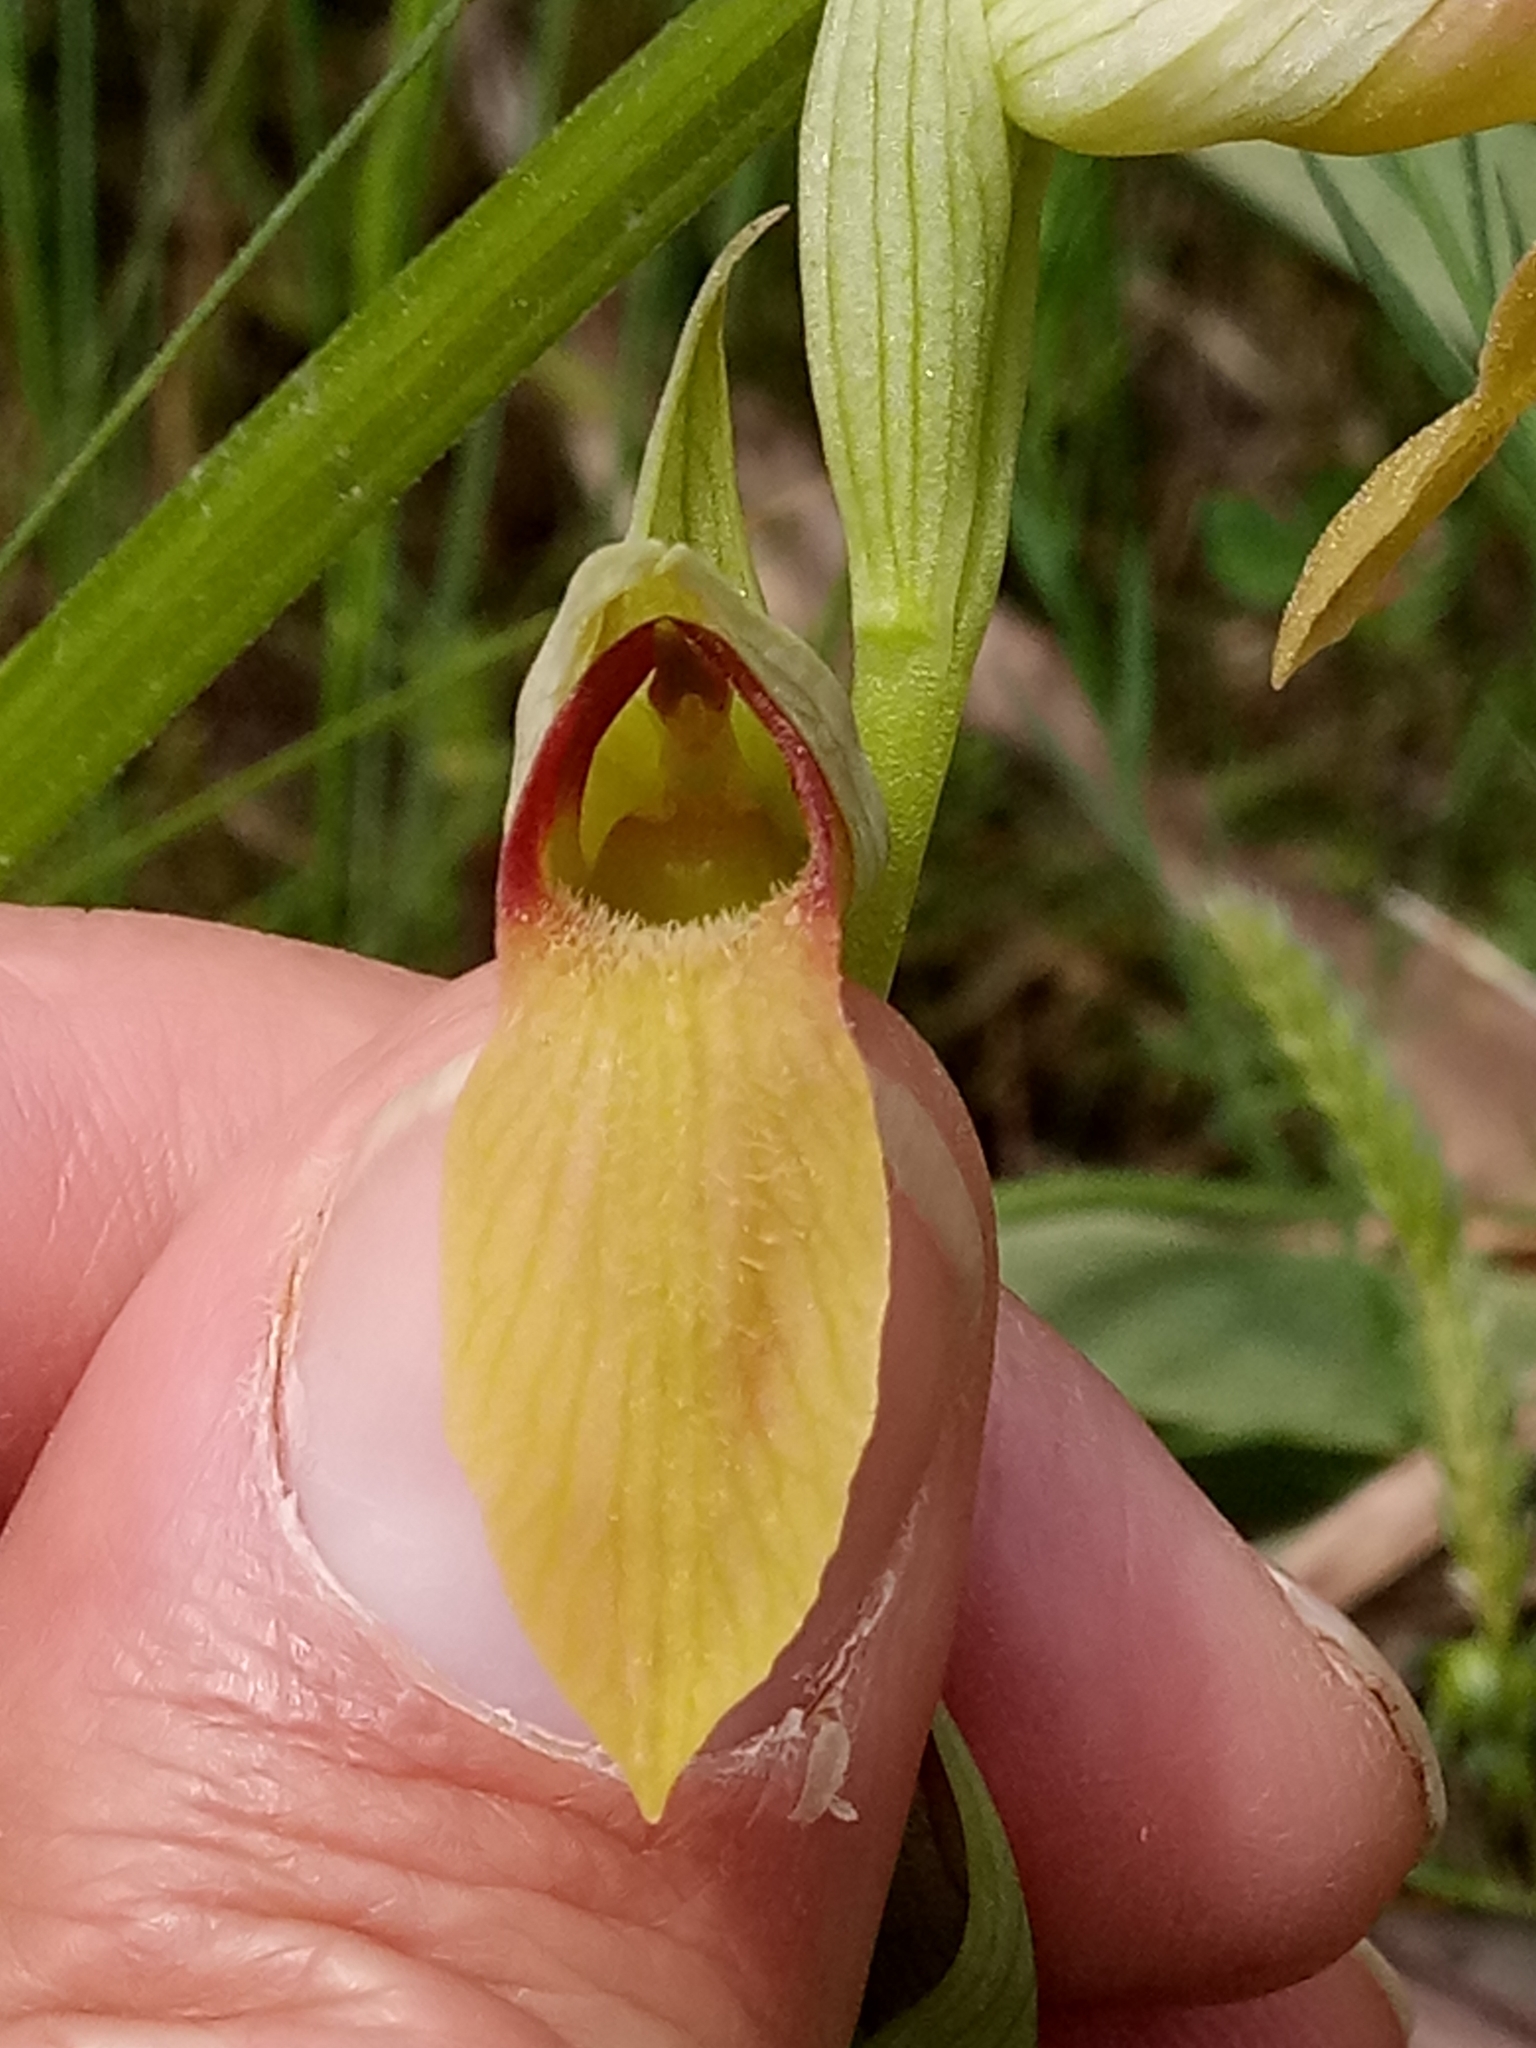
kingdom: Plantae
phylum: Tracheophyta
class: Liliopsida
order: Asparagales
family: Orchidaceae
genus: Serapias
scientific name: Serapias lingua
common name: Tongue-orchid
